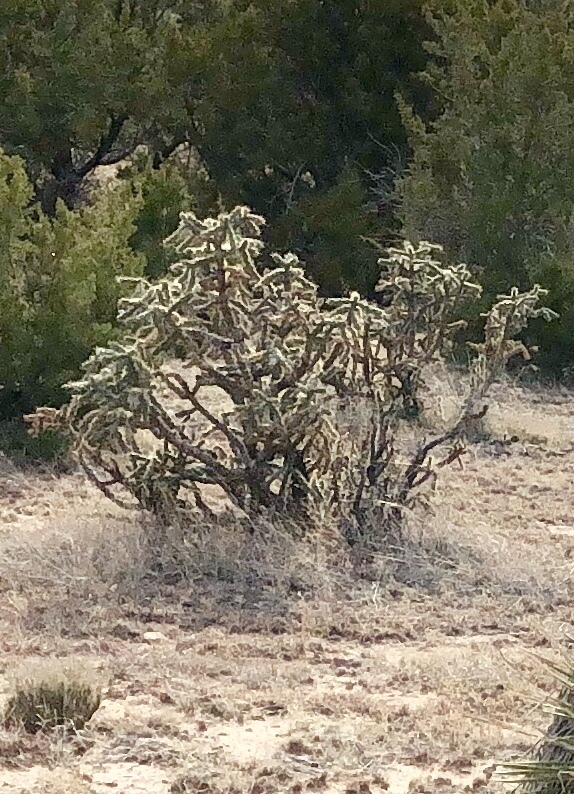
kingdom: Plantae
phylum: Tracheophyta
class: Magnoliopsida
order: Caryophyllales
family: Cactaceae
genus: Cylindropuntia
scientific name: Cylindropuntia imbricata
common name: Candelabrum cactus
